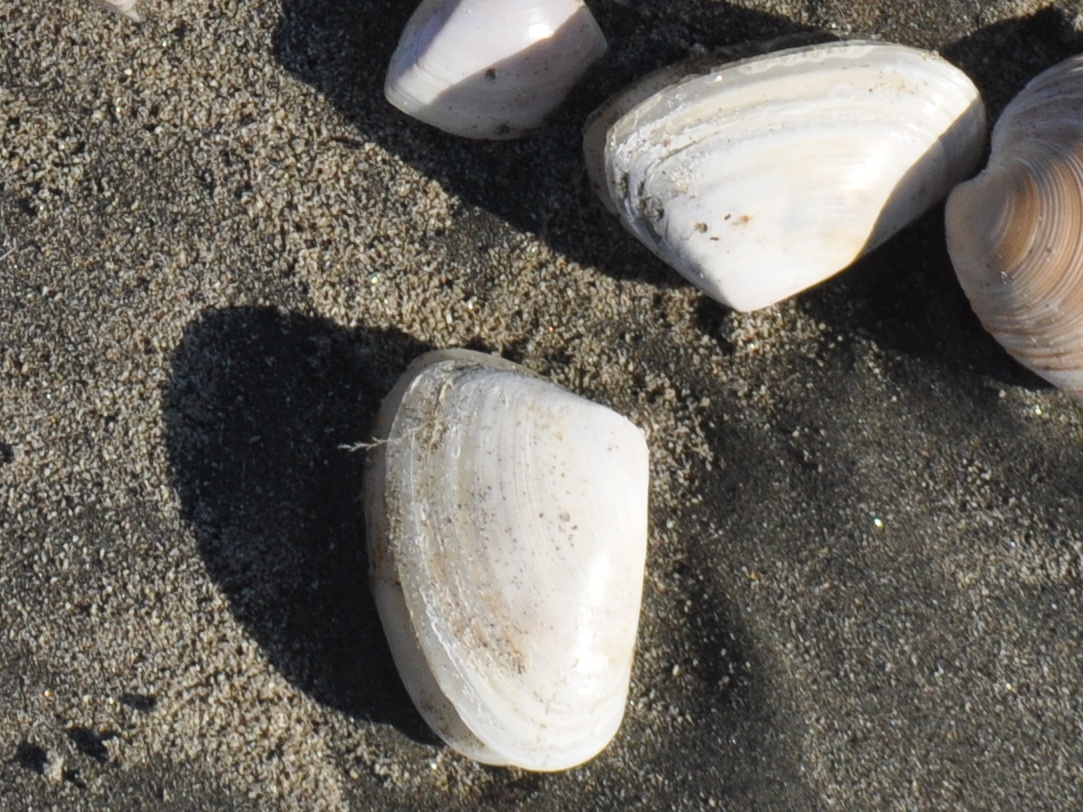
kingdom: Animalia
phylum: Mollusca
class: Bivalvia
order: Venerida
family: Mesodesmatidae
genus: Paphies
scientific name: Paphies subtriangulata
